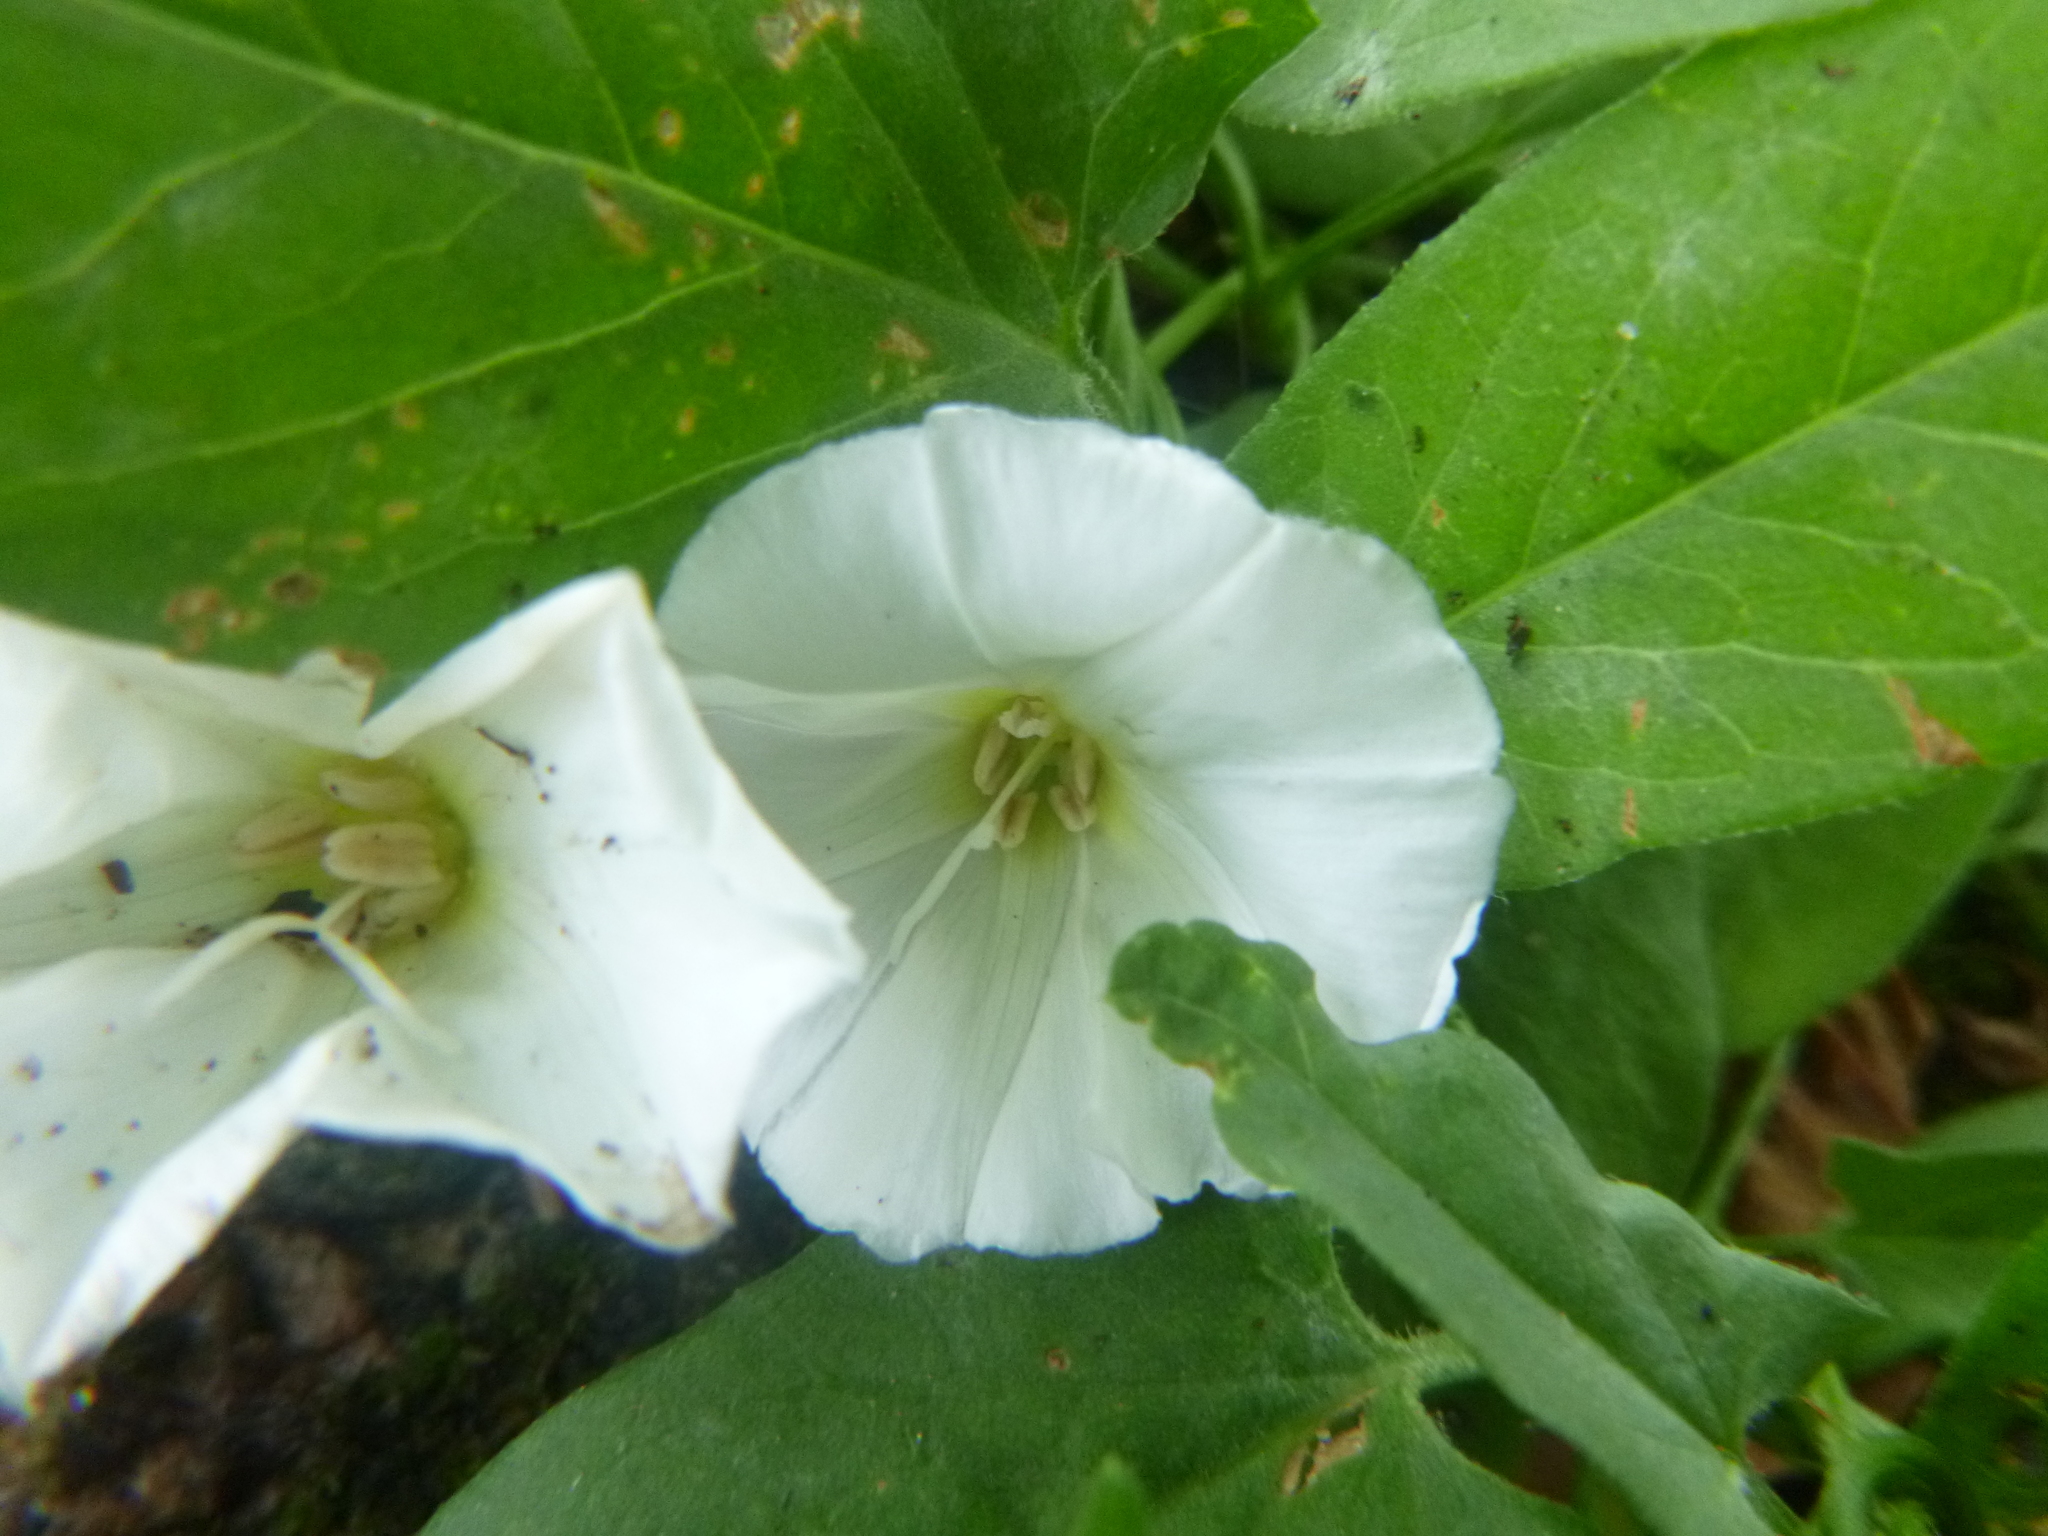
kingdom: Plantae
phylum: Tracheophyta
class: Magnoliopsida
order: Solanales
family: Convolvulaceae
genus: Convolvulus
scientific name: Convolvulus arvensis
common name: Field bindweed
